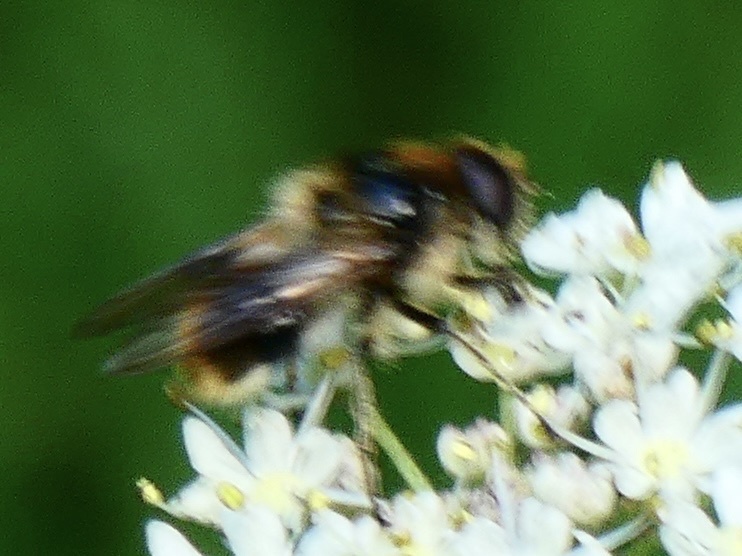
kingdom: Animalia
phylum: Arthropoda
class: Insecta
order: Diptera
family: Syrphidae
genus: Cheilosia
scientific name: Cheilosia illustrata
